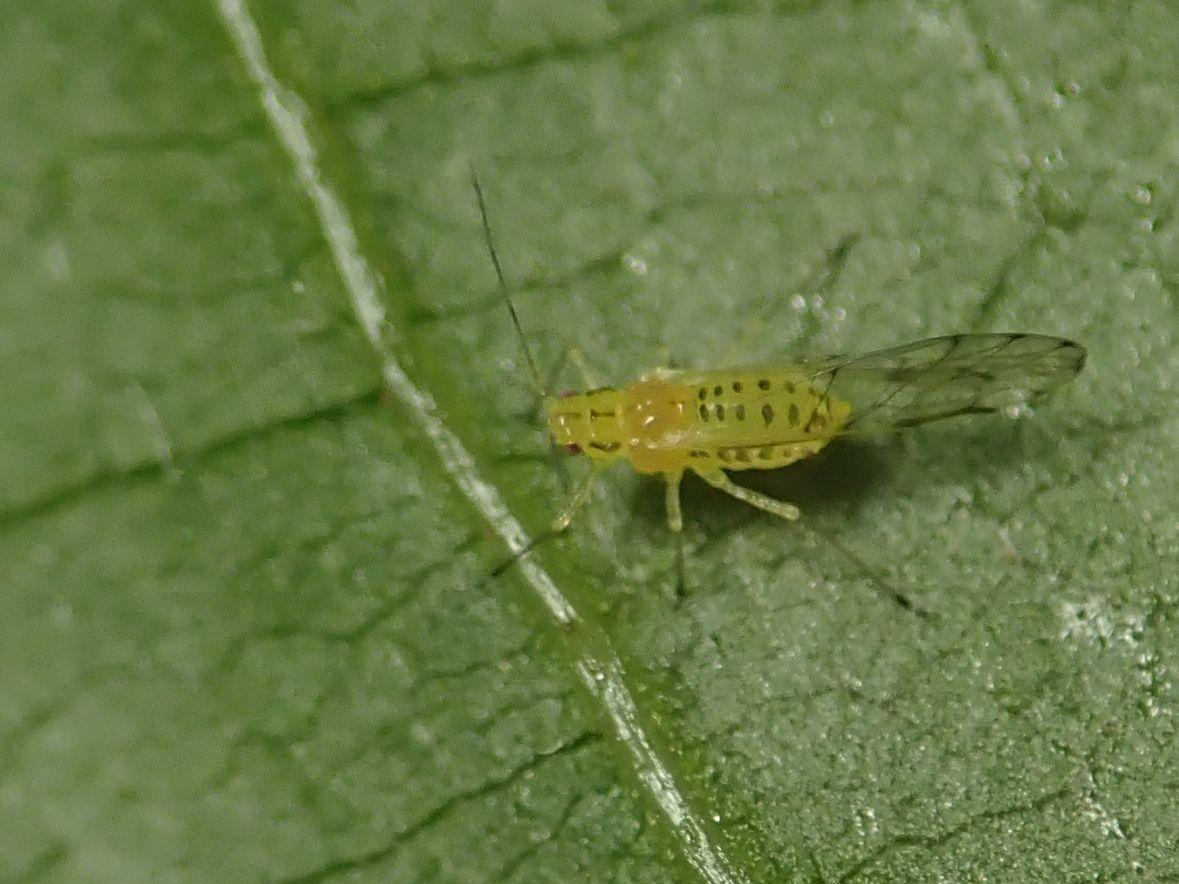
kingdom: Animalia
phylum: Arthropoda
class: Insecta
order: Hemiptera
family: Aphididae
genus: Takecallis
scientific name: Takecallis
